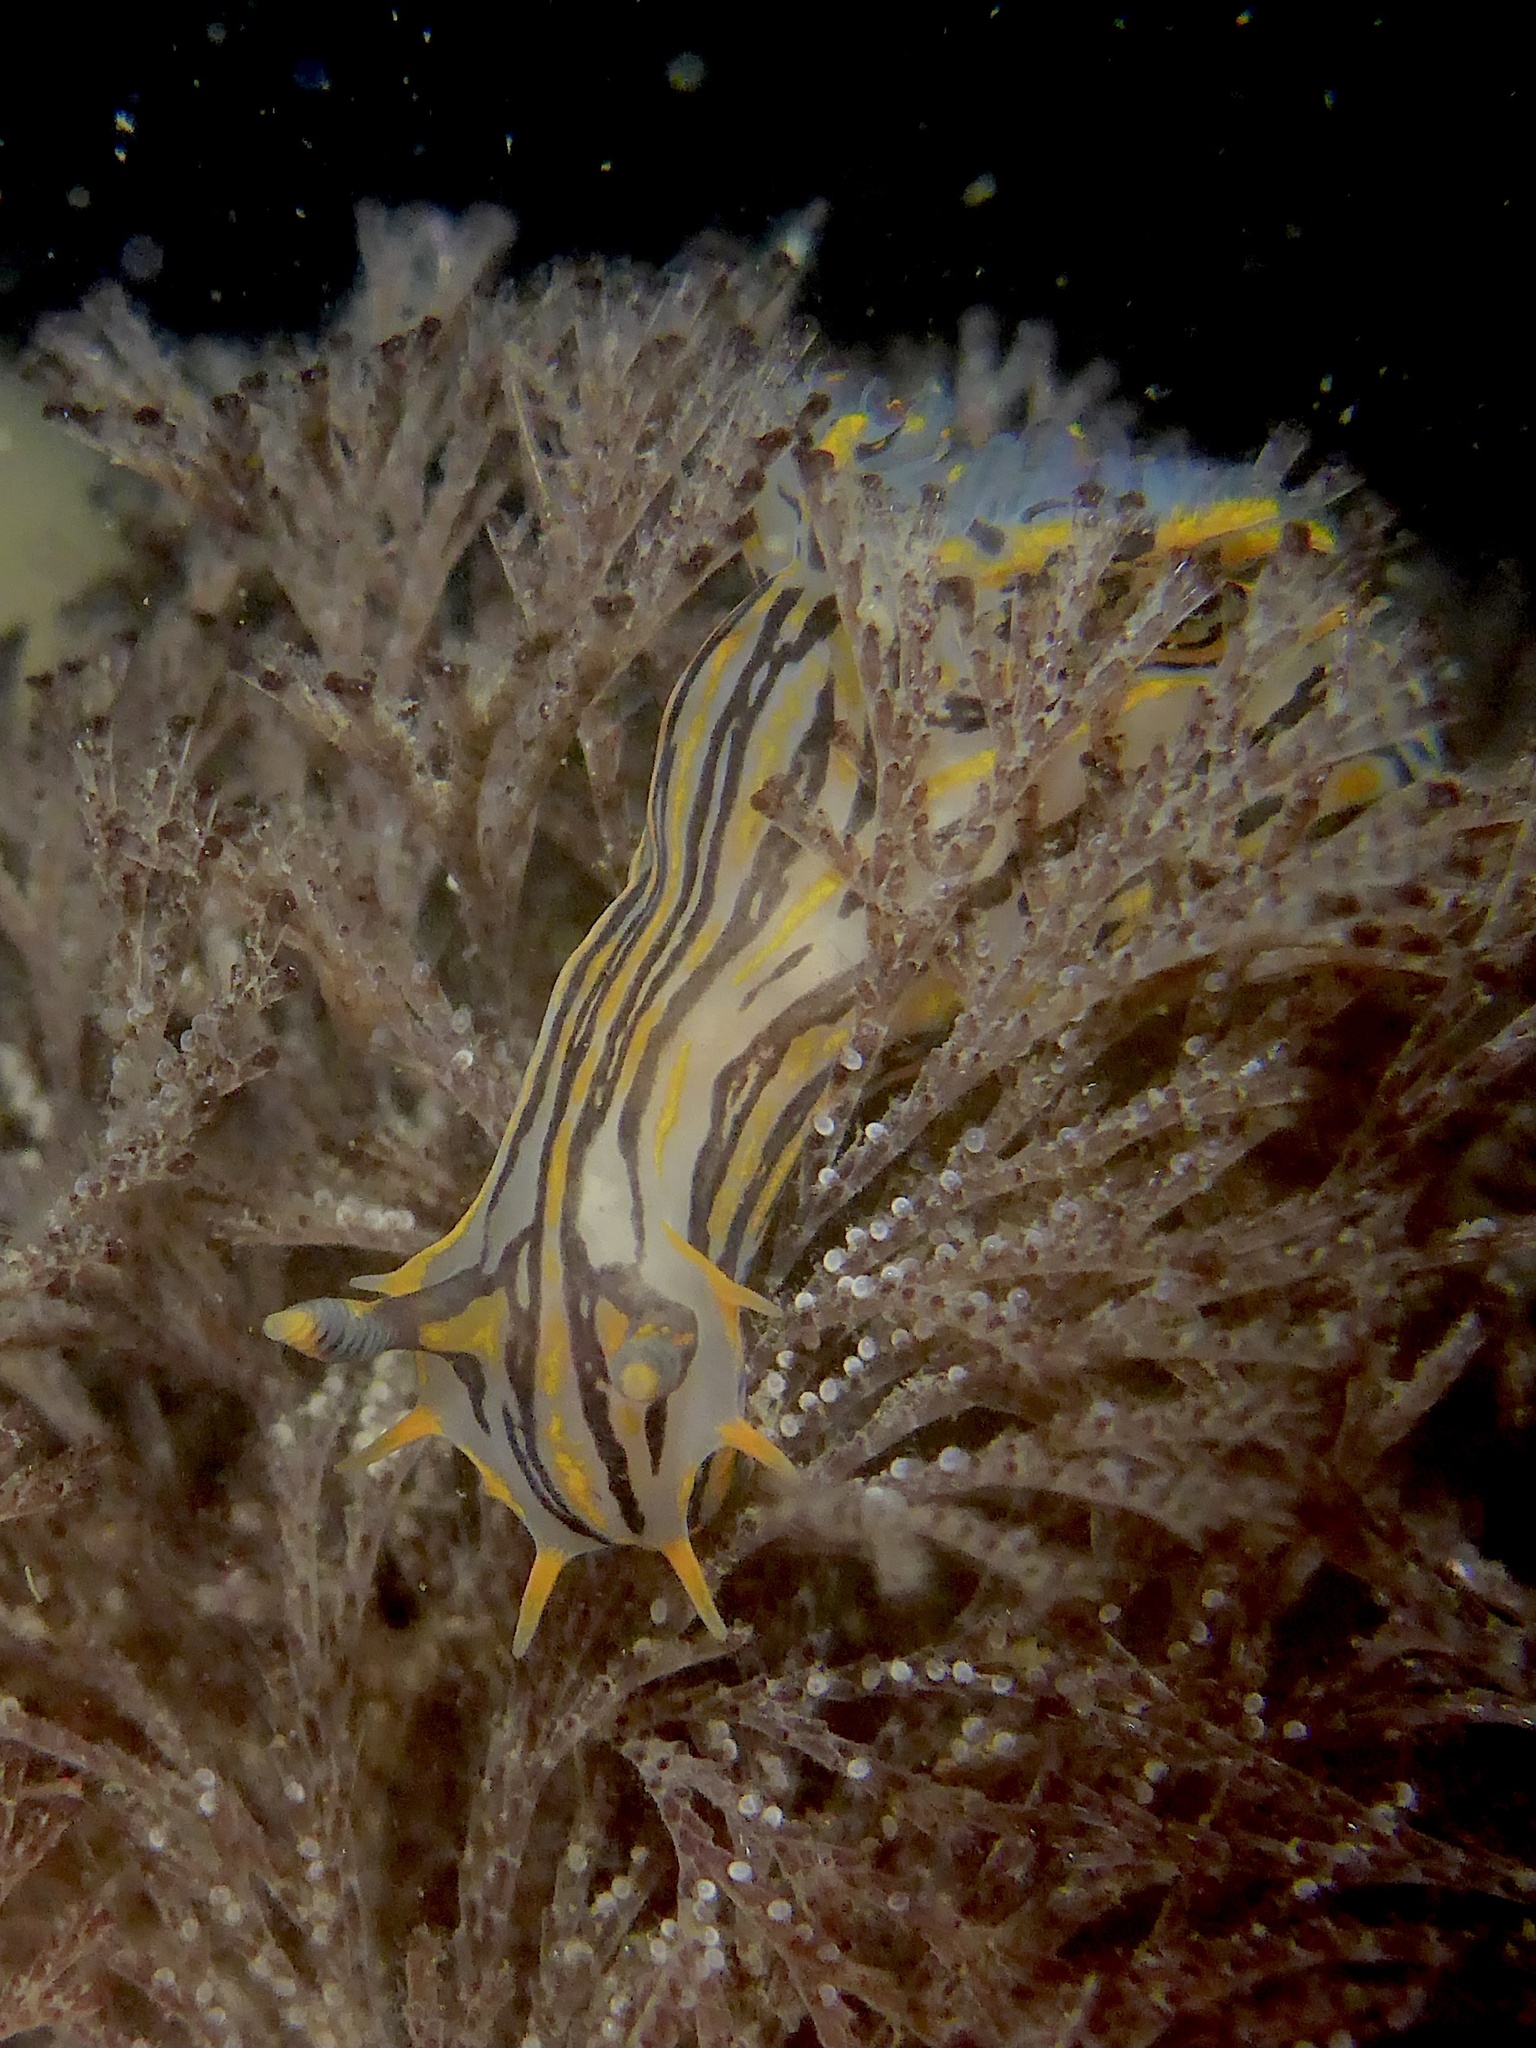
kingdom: Animalia
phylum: Mollusca
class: Gastropoda
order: Nudibranchia
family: Polyceridae
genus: Polycera
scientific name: Polycera atra
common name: Orange-spike polycera
